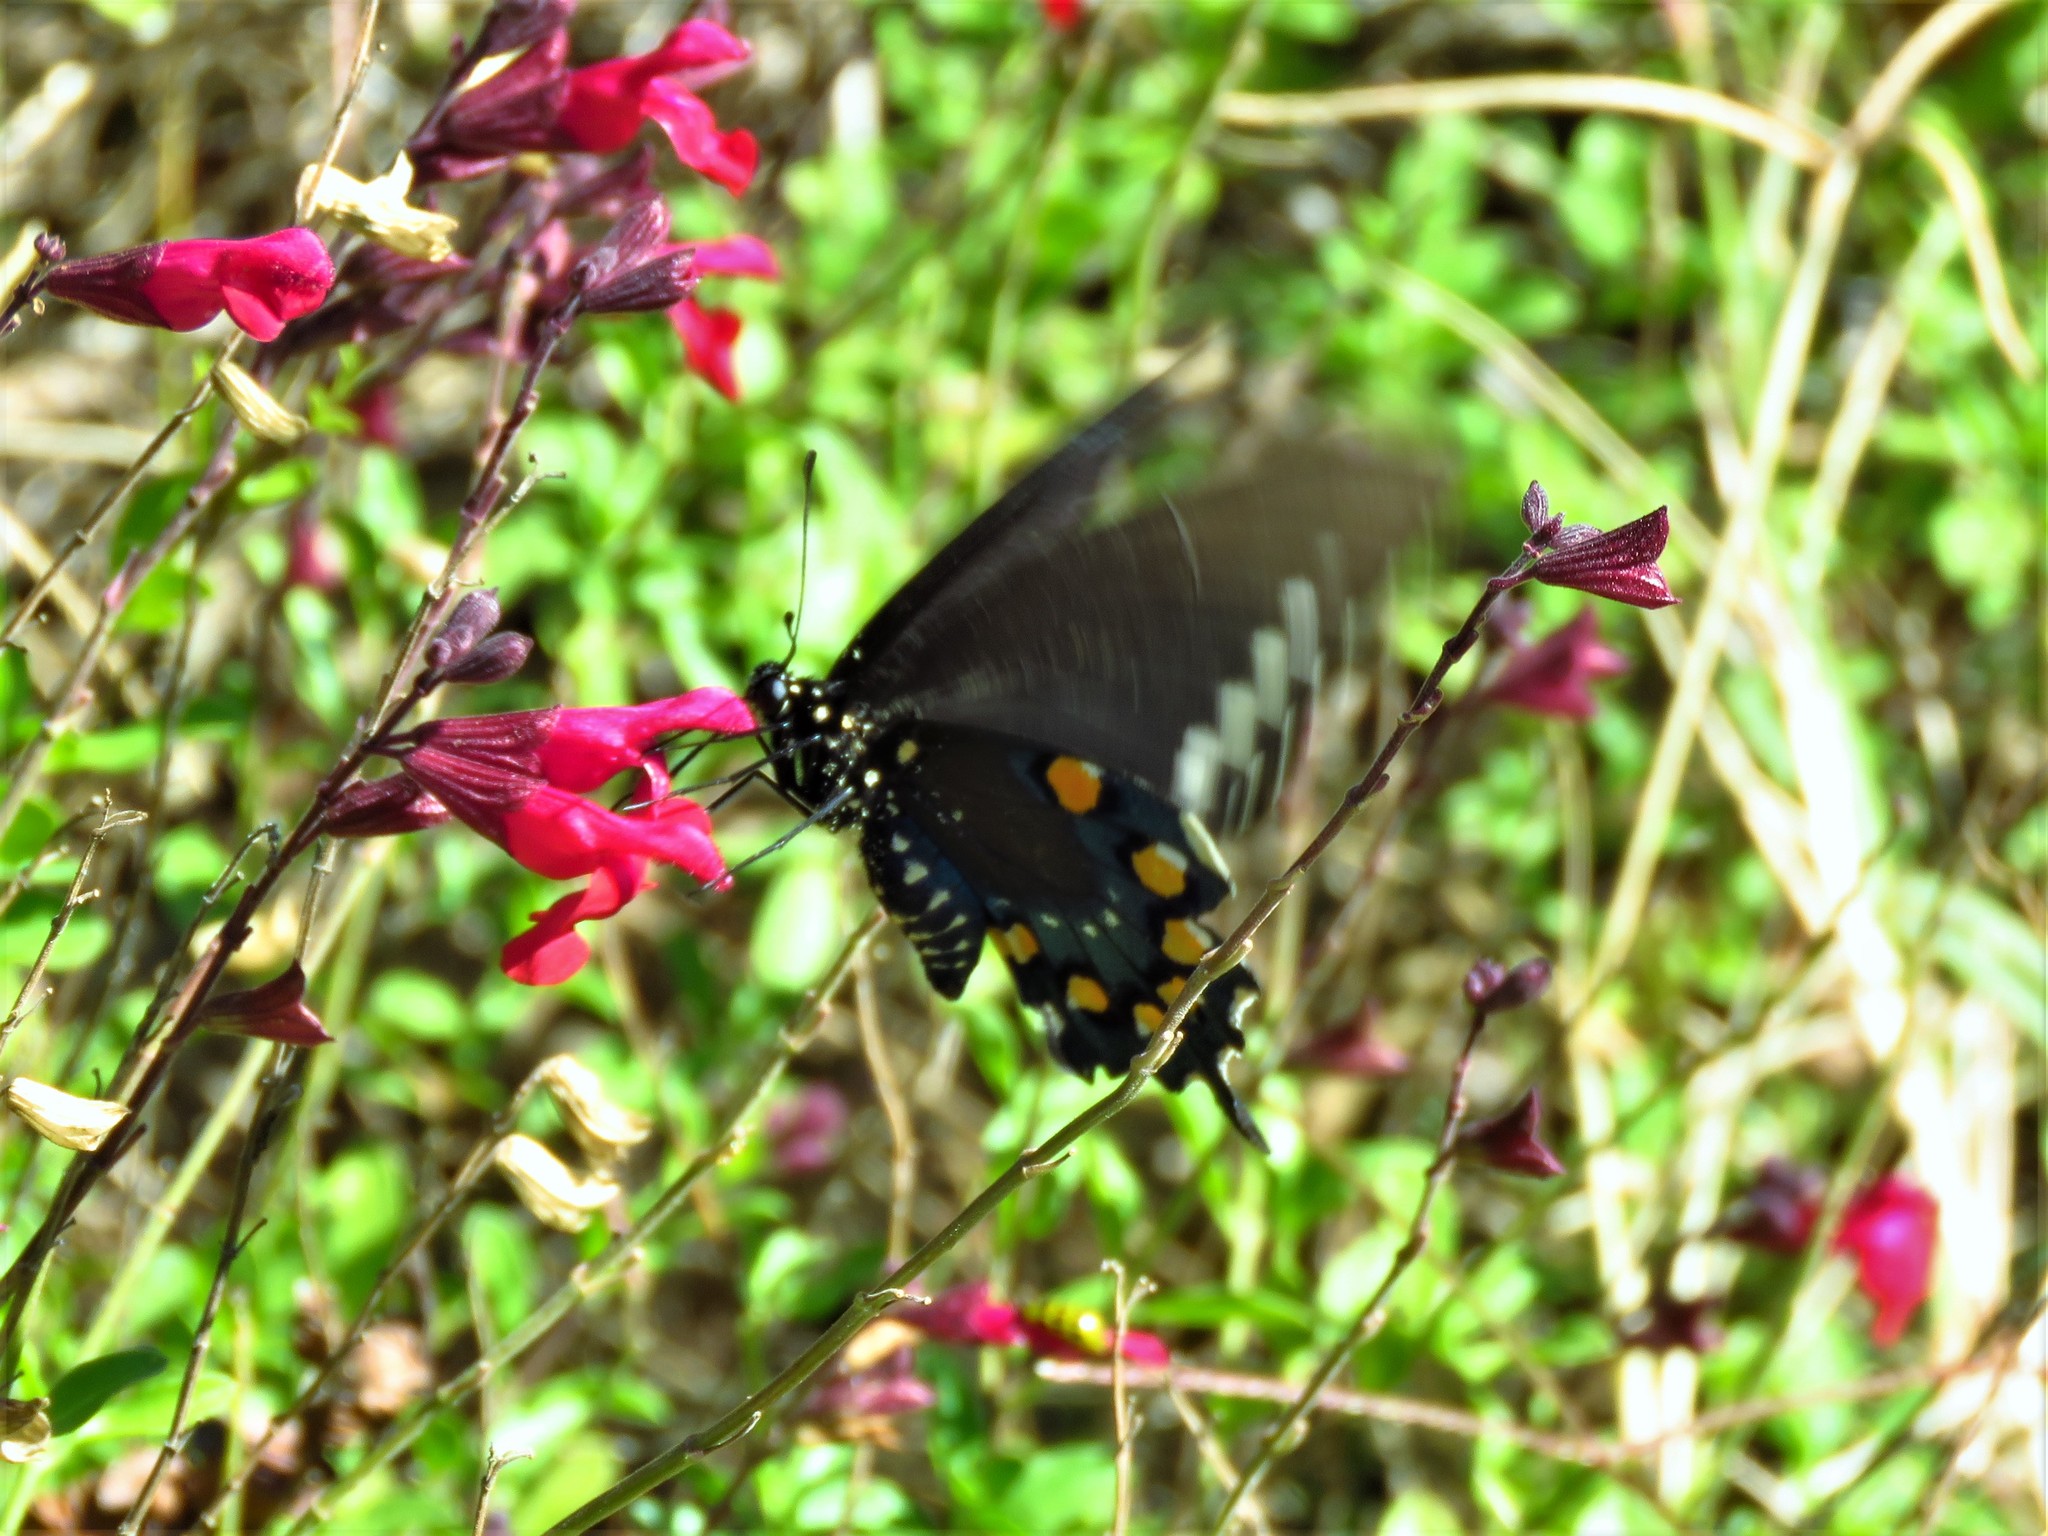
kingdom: Animalia
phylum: Arthropoda
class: Insecta
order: Lepidoptera
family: Papilionidae
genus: Battus
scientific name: Battus philenor
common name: Pipevine swallowtail
